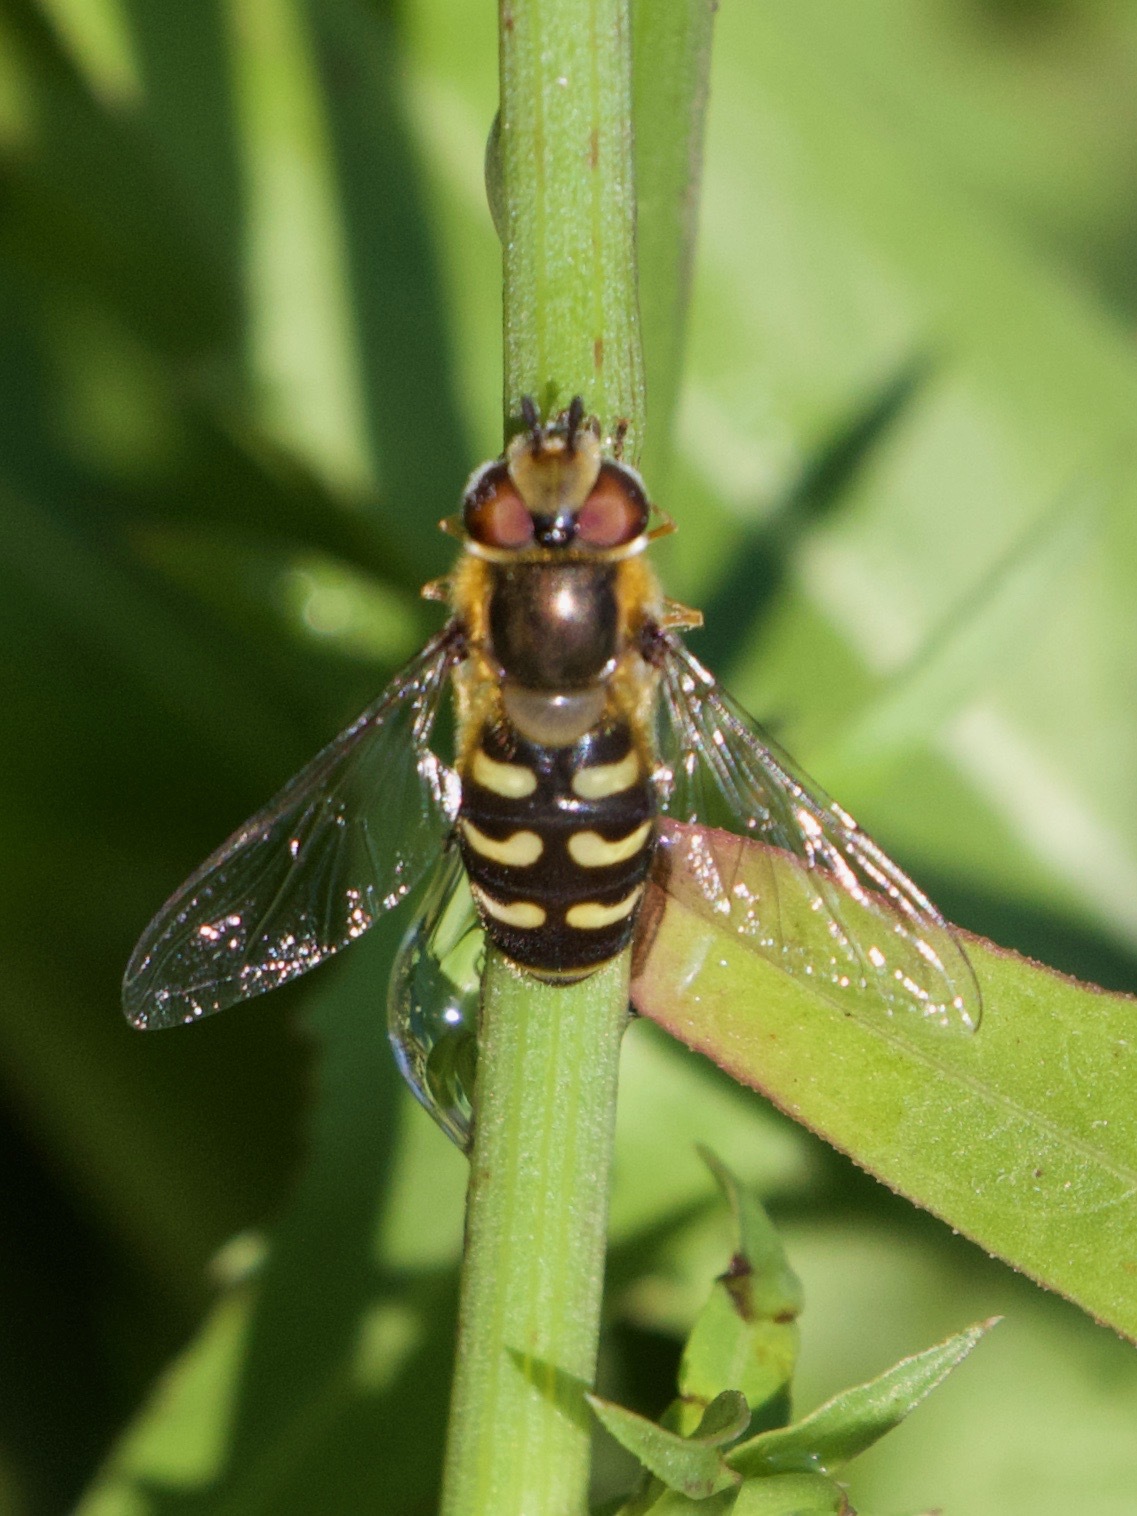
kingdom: Animalia
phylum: Arthropoda
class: Insecta
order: Diptera
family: Syrphidae
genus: Scaeva
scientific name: Scaeva selenitica
